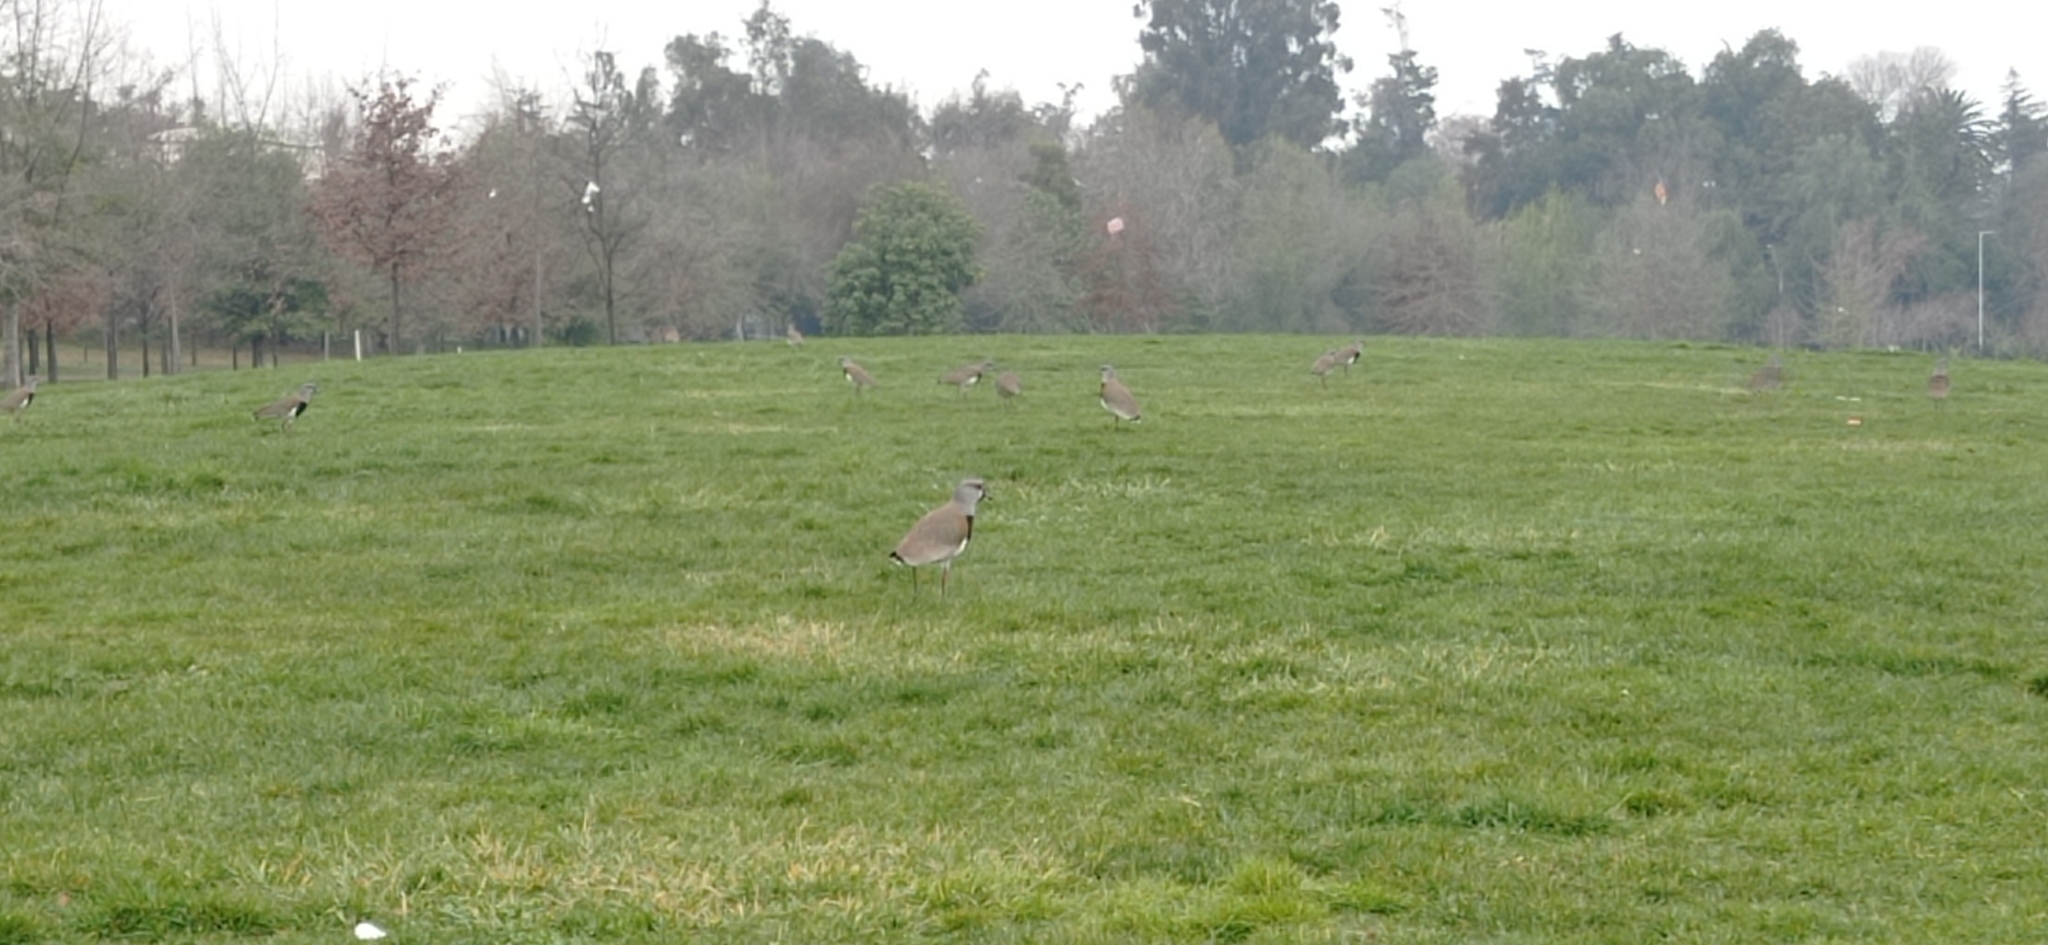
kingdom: Animalia
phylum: Chordata
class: Aves
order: Charadriiformes
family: Charadriidae
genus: Vanellus
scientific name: Vanellus chilensis
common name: Southern lapwing
